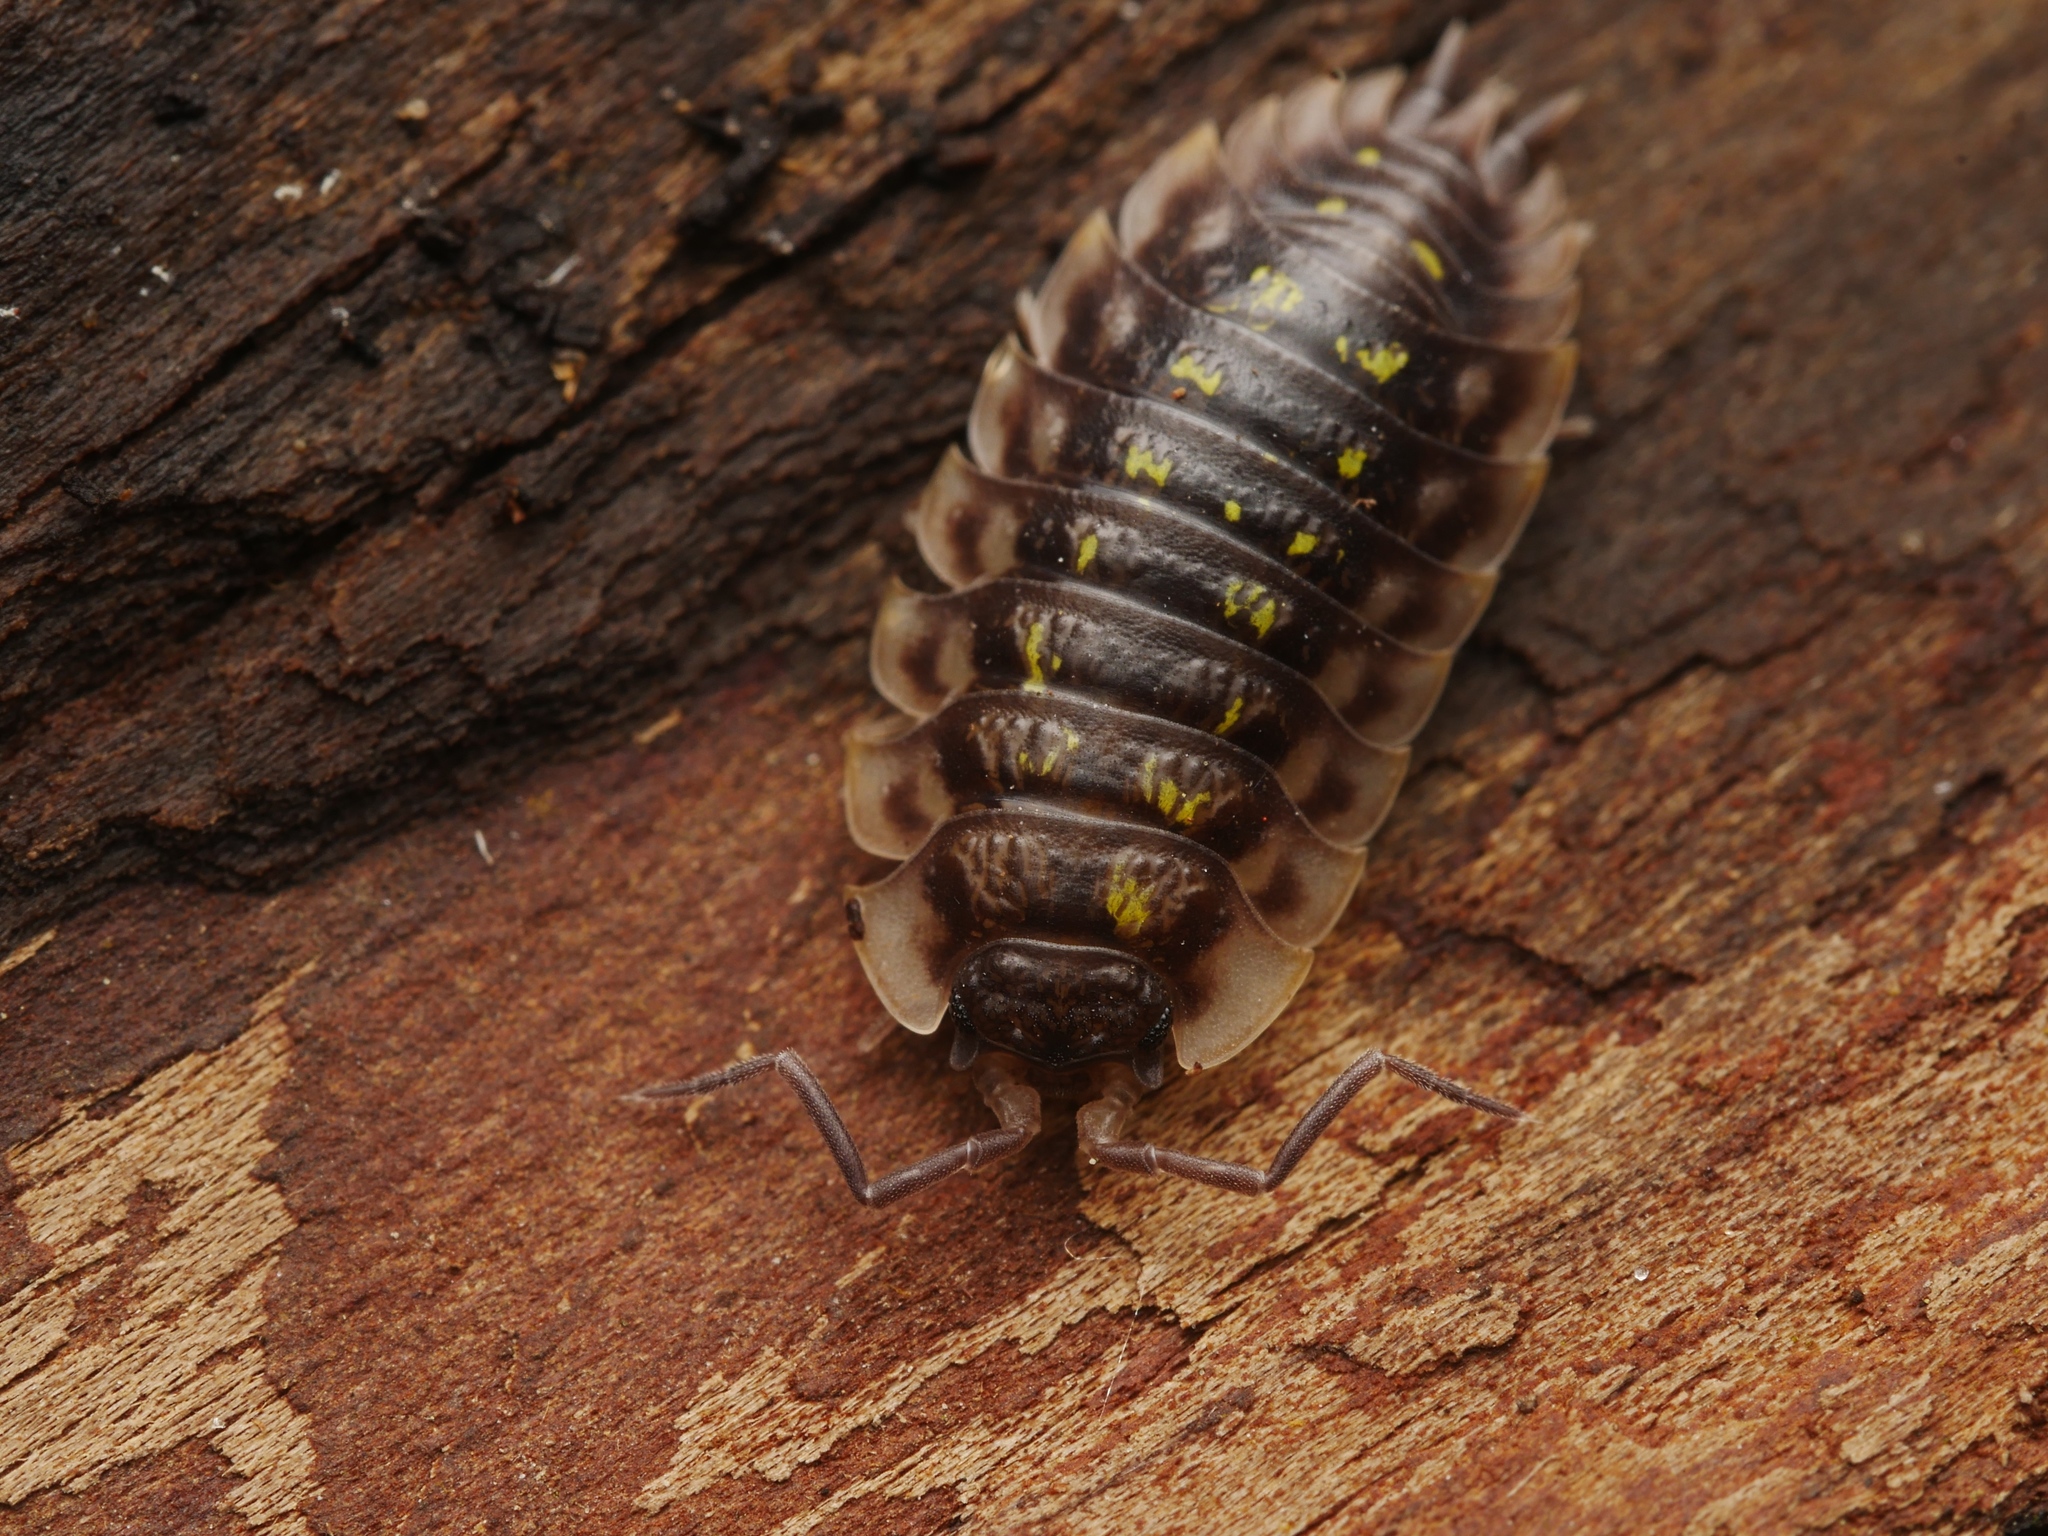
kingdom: Animalia
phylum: Arthropoda
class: Malacostraca
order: Isopoda
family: Oniscidae
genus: Oniscus
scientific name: Oniscus asellus
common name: Common shiny woodlouse
